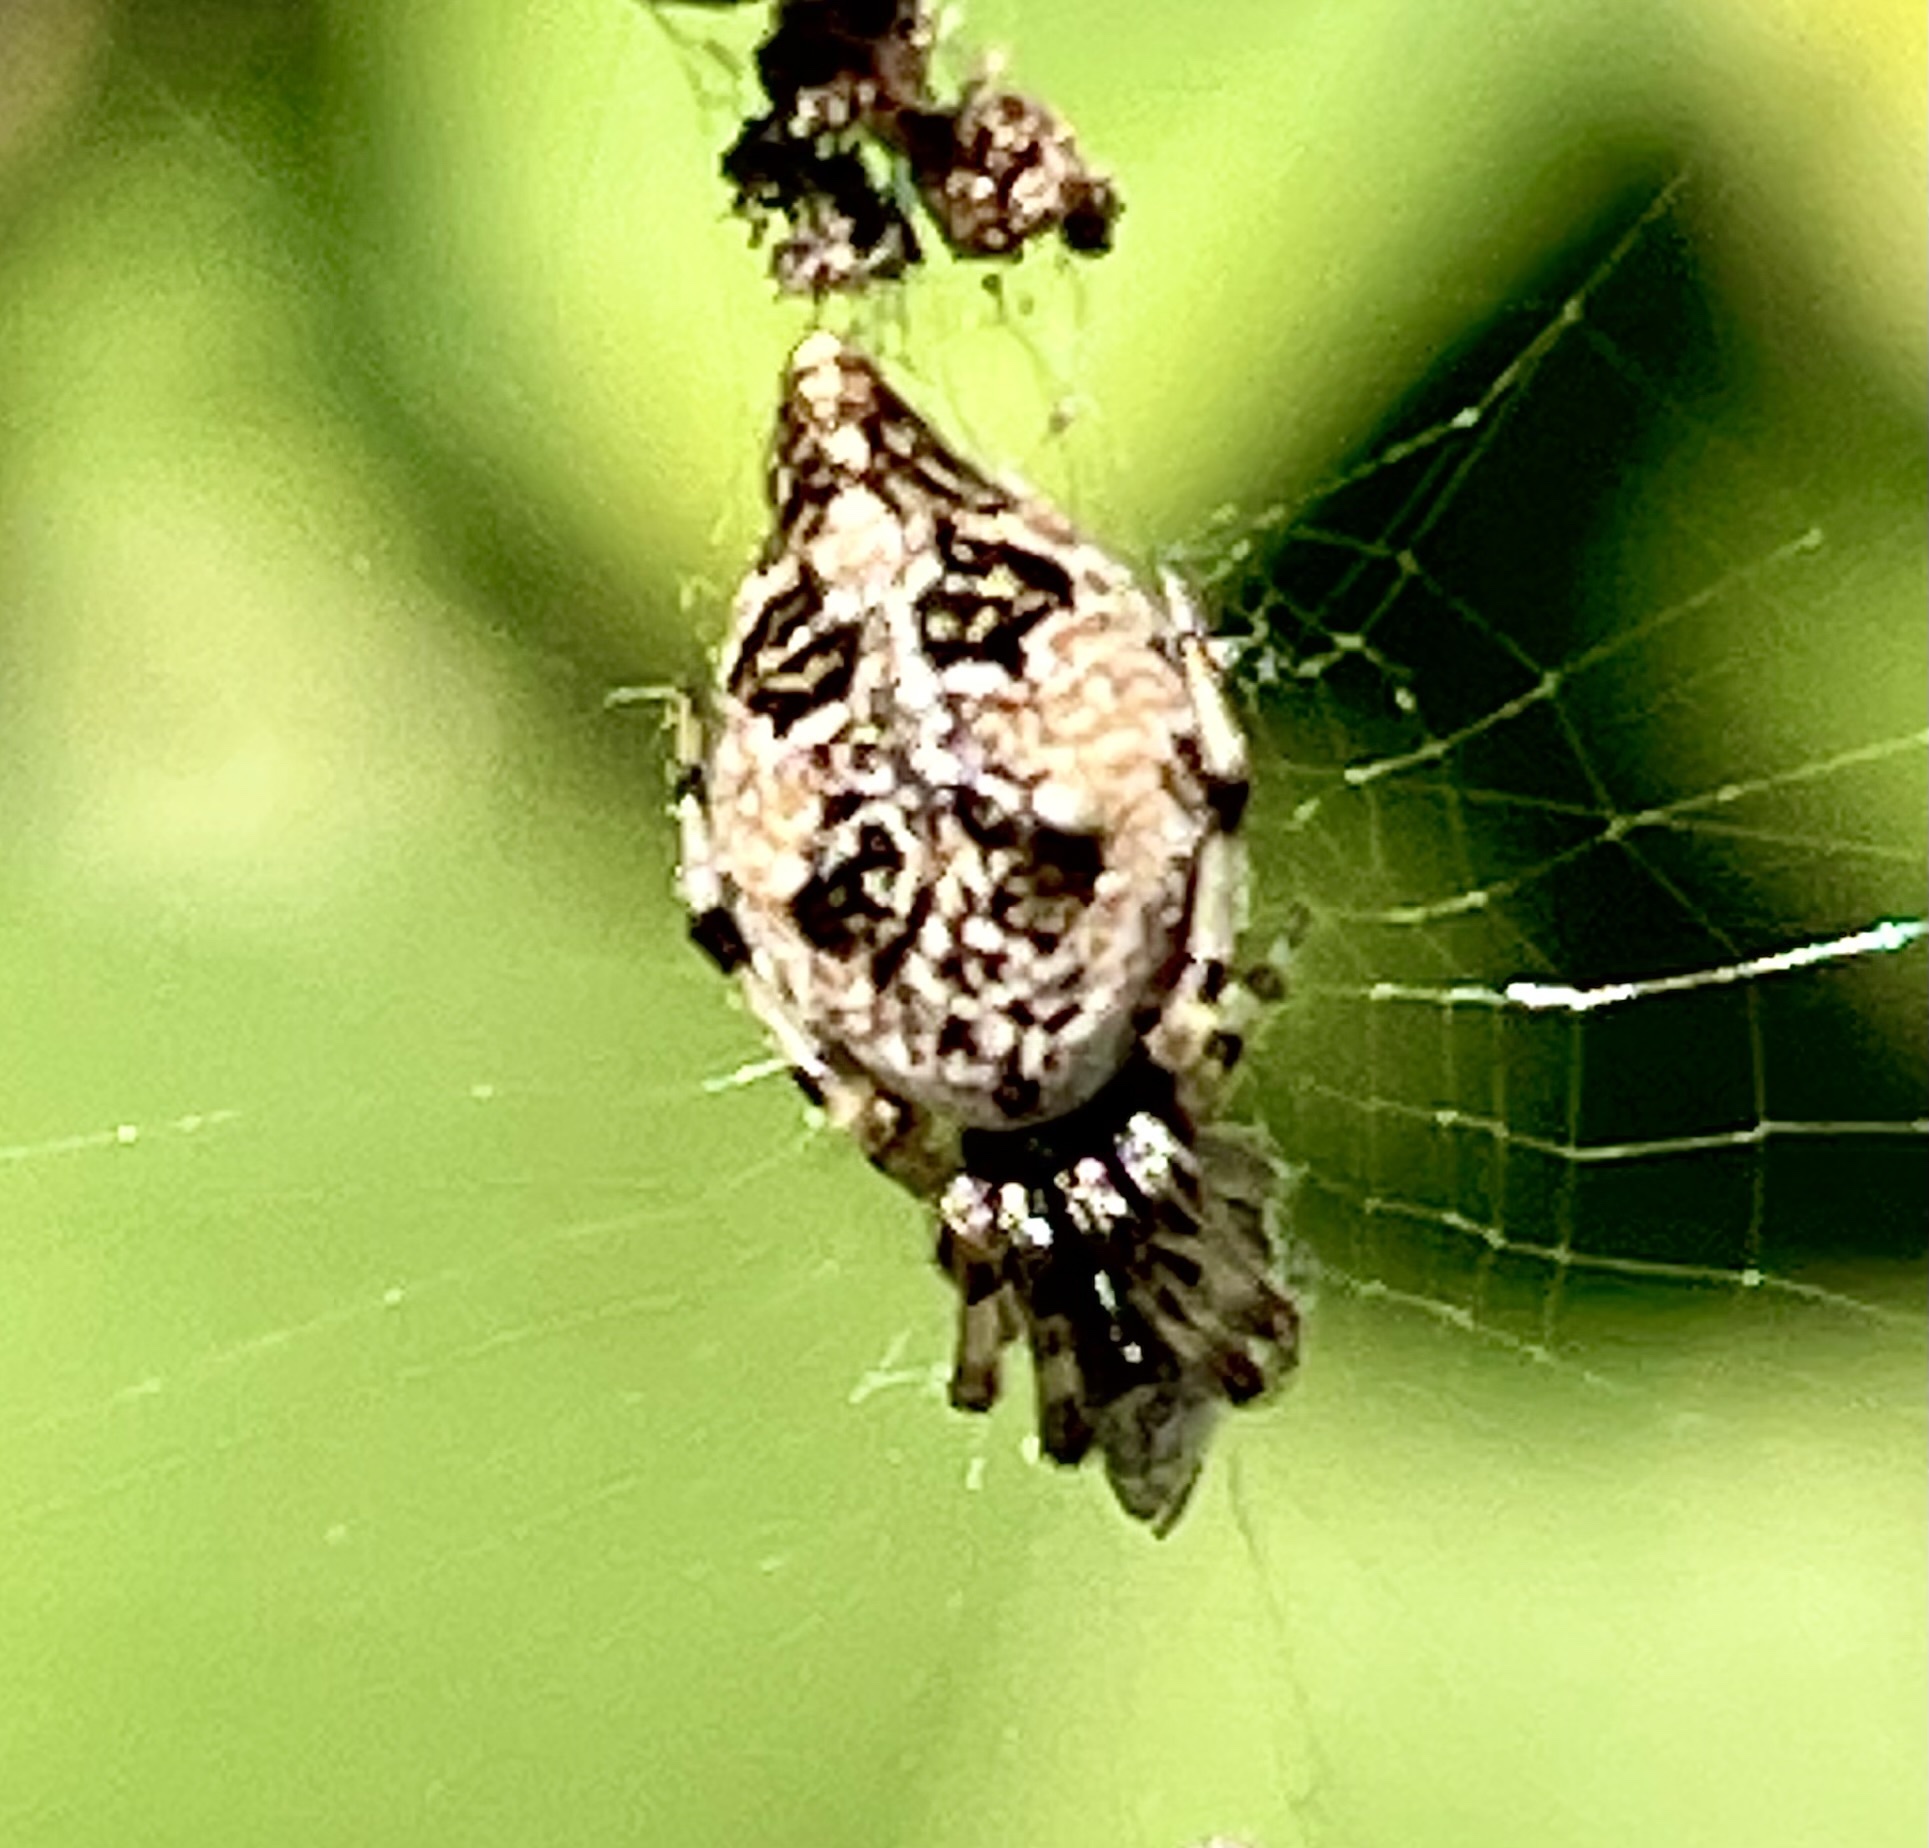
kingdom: Animalia
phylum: Arthropoda
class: Arachnida
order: Araneae
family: Araneidae
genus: Cyclosa
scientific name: Cyclosa turbinata
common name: Orb weavers
